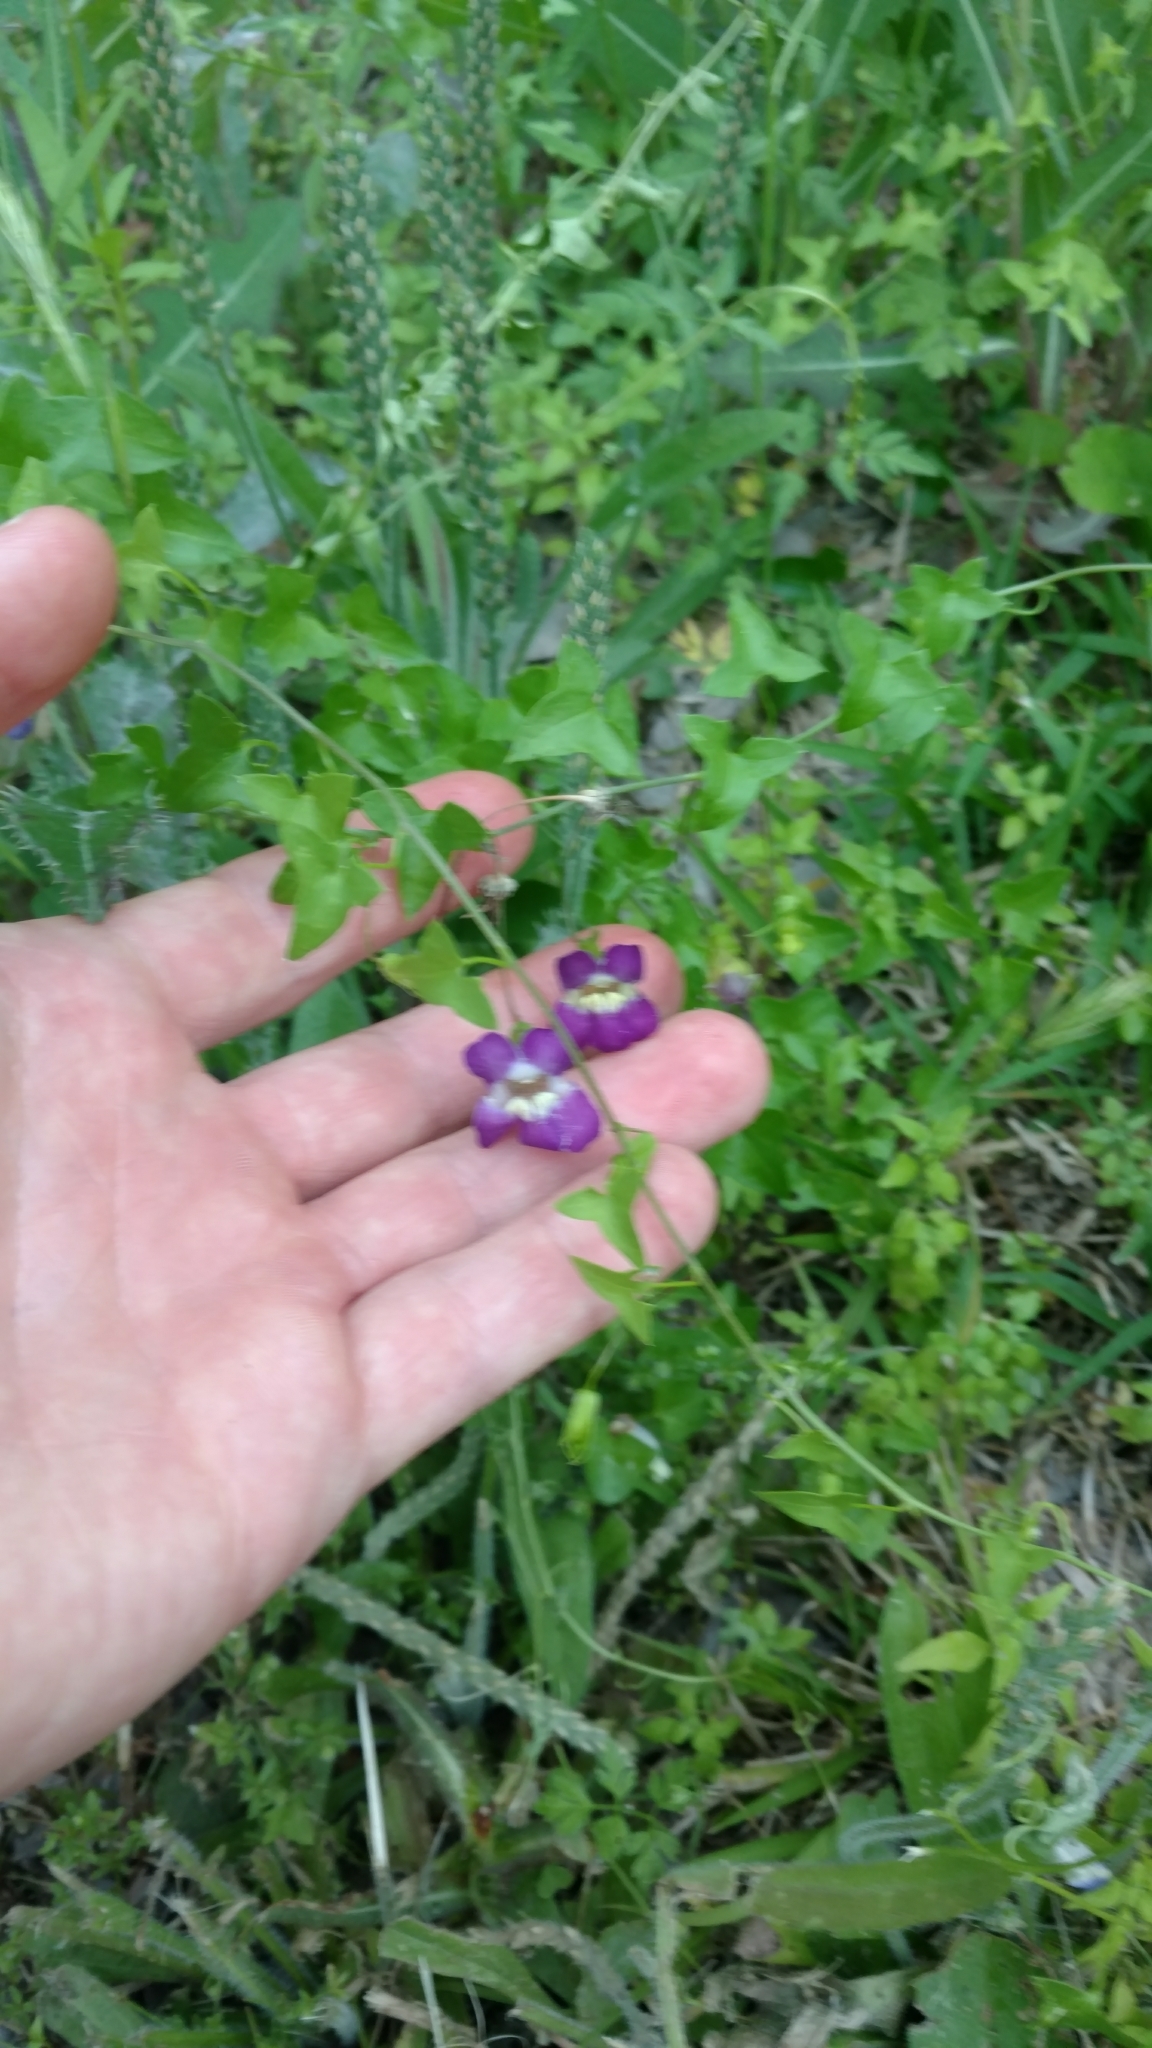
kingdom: Plantae
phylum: Tracheophyta
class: Magnoliopsida
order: Lamiales
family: Plantaginaceae
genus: Maurandella
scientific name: Maurandella antirrhiniflora
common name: Violet twining-snapdragon
